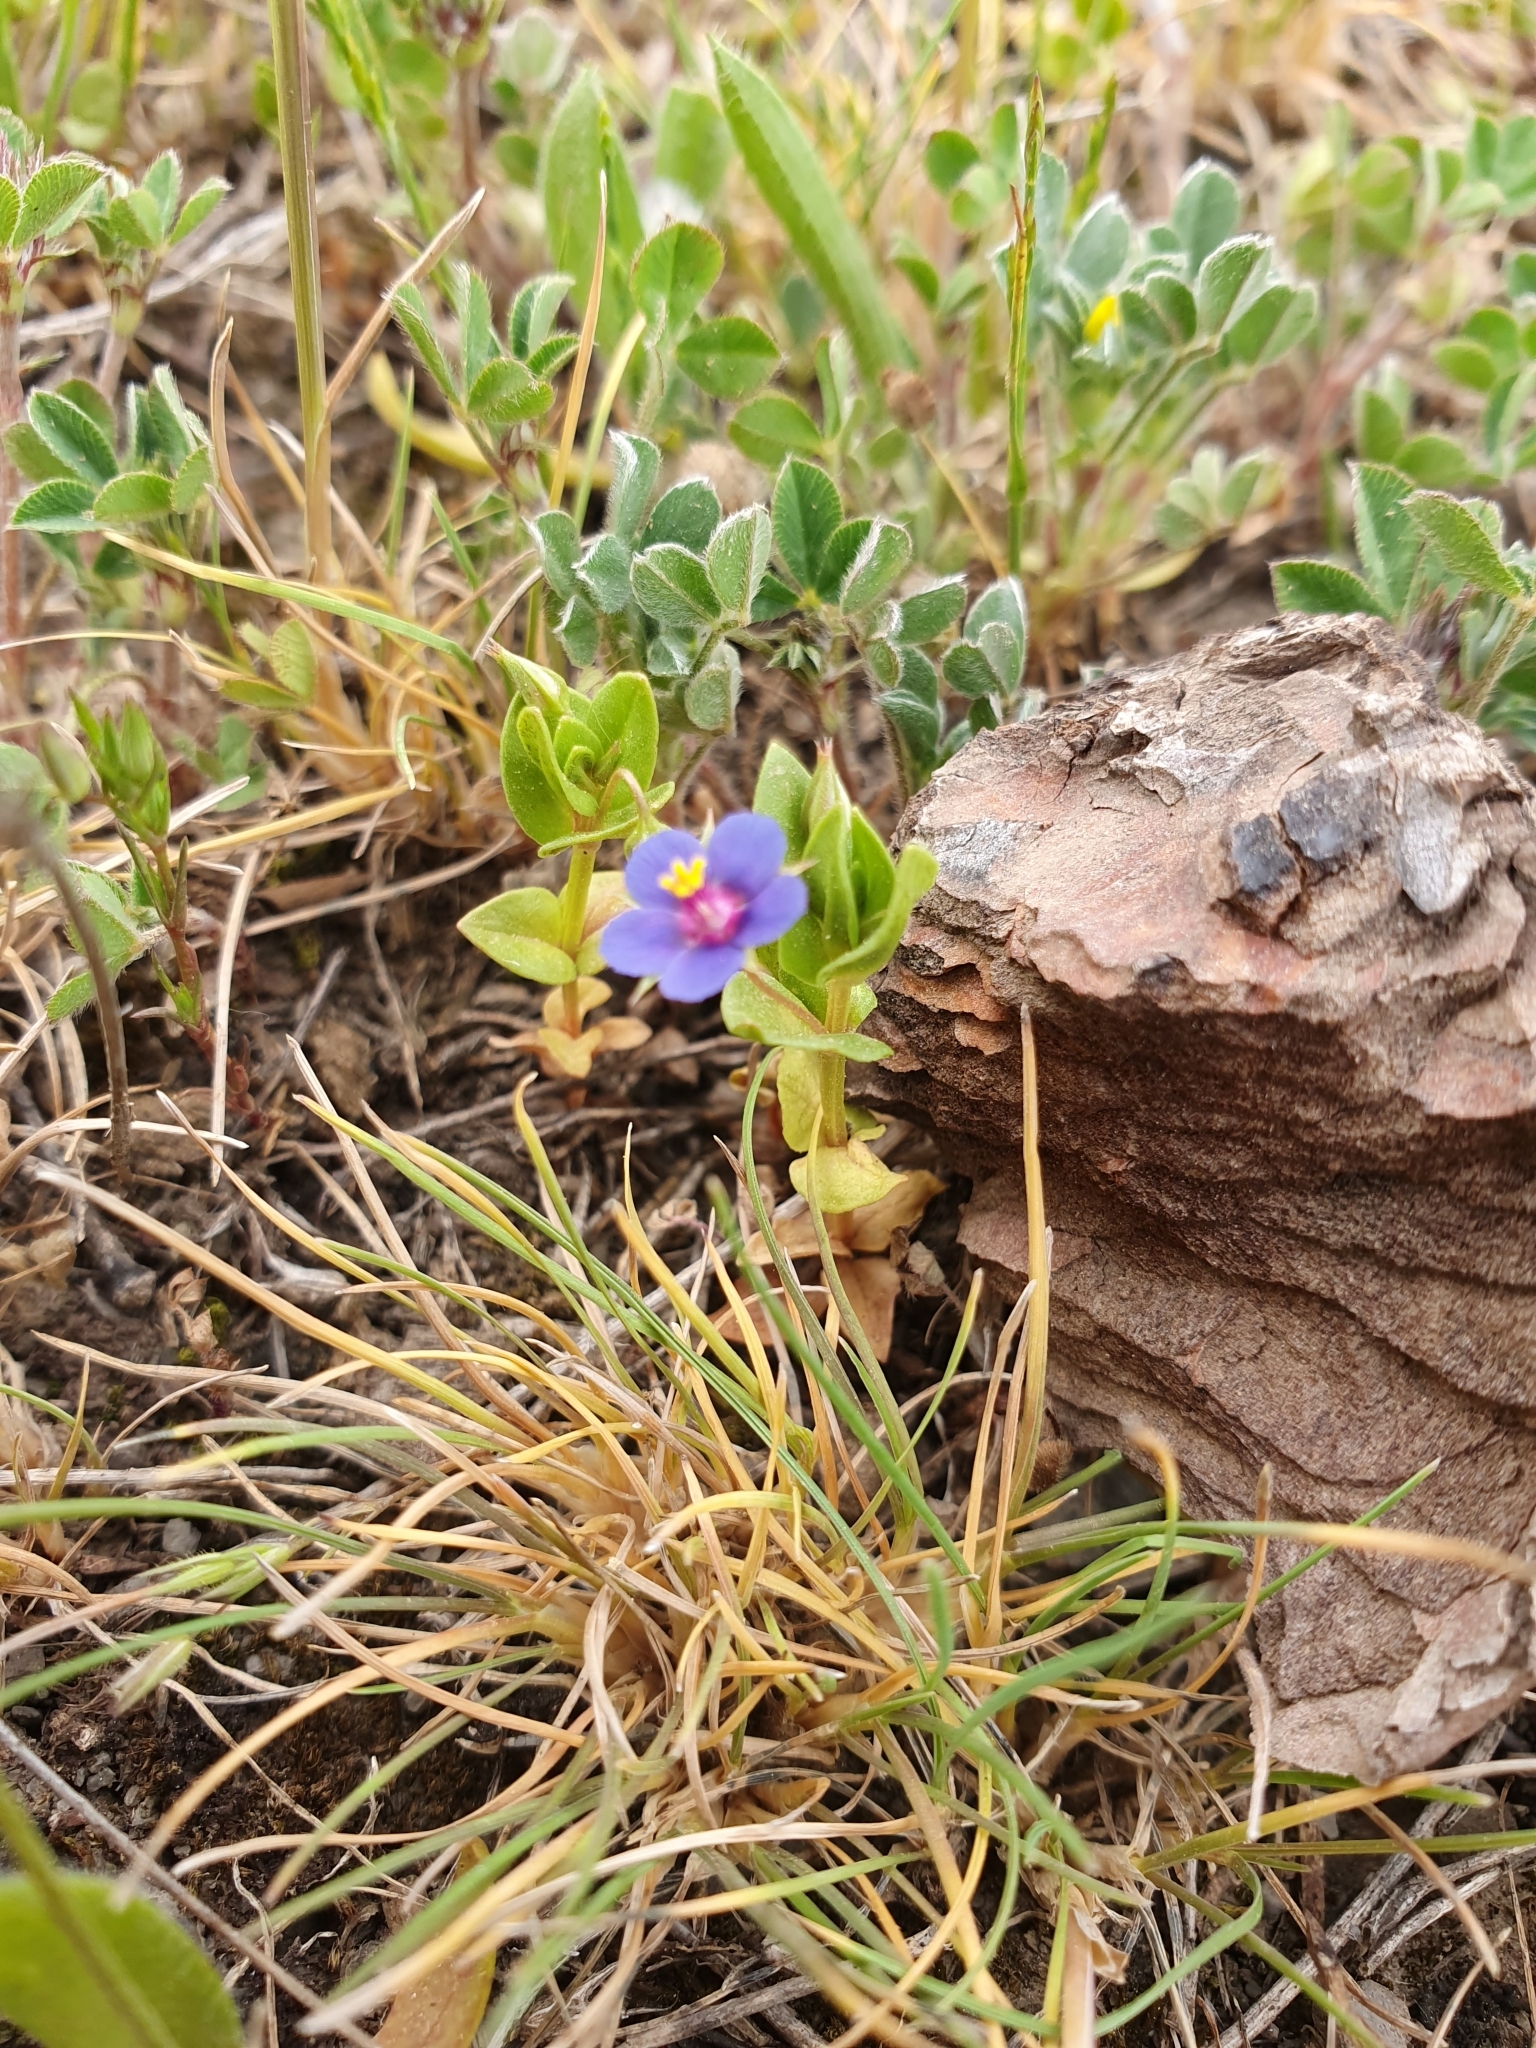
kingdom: Plantae
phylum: Tracheophyta
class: Magnoliopsida
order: Ericales
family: Primulaceae
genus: Lysimachia
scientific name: Lysimachia loeflingii
